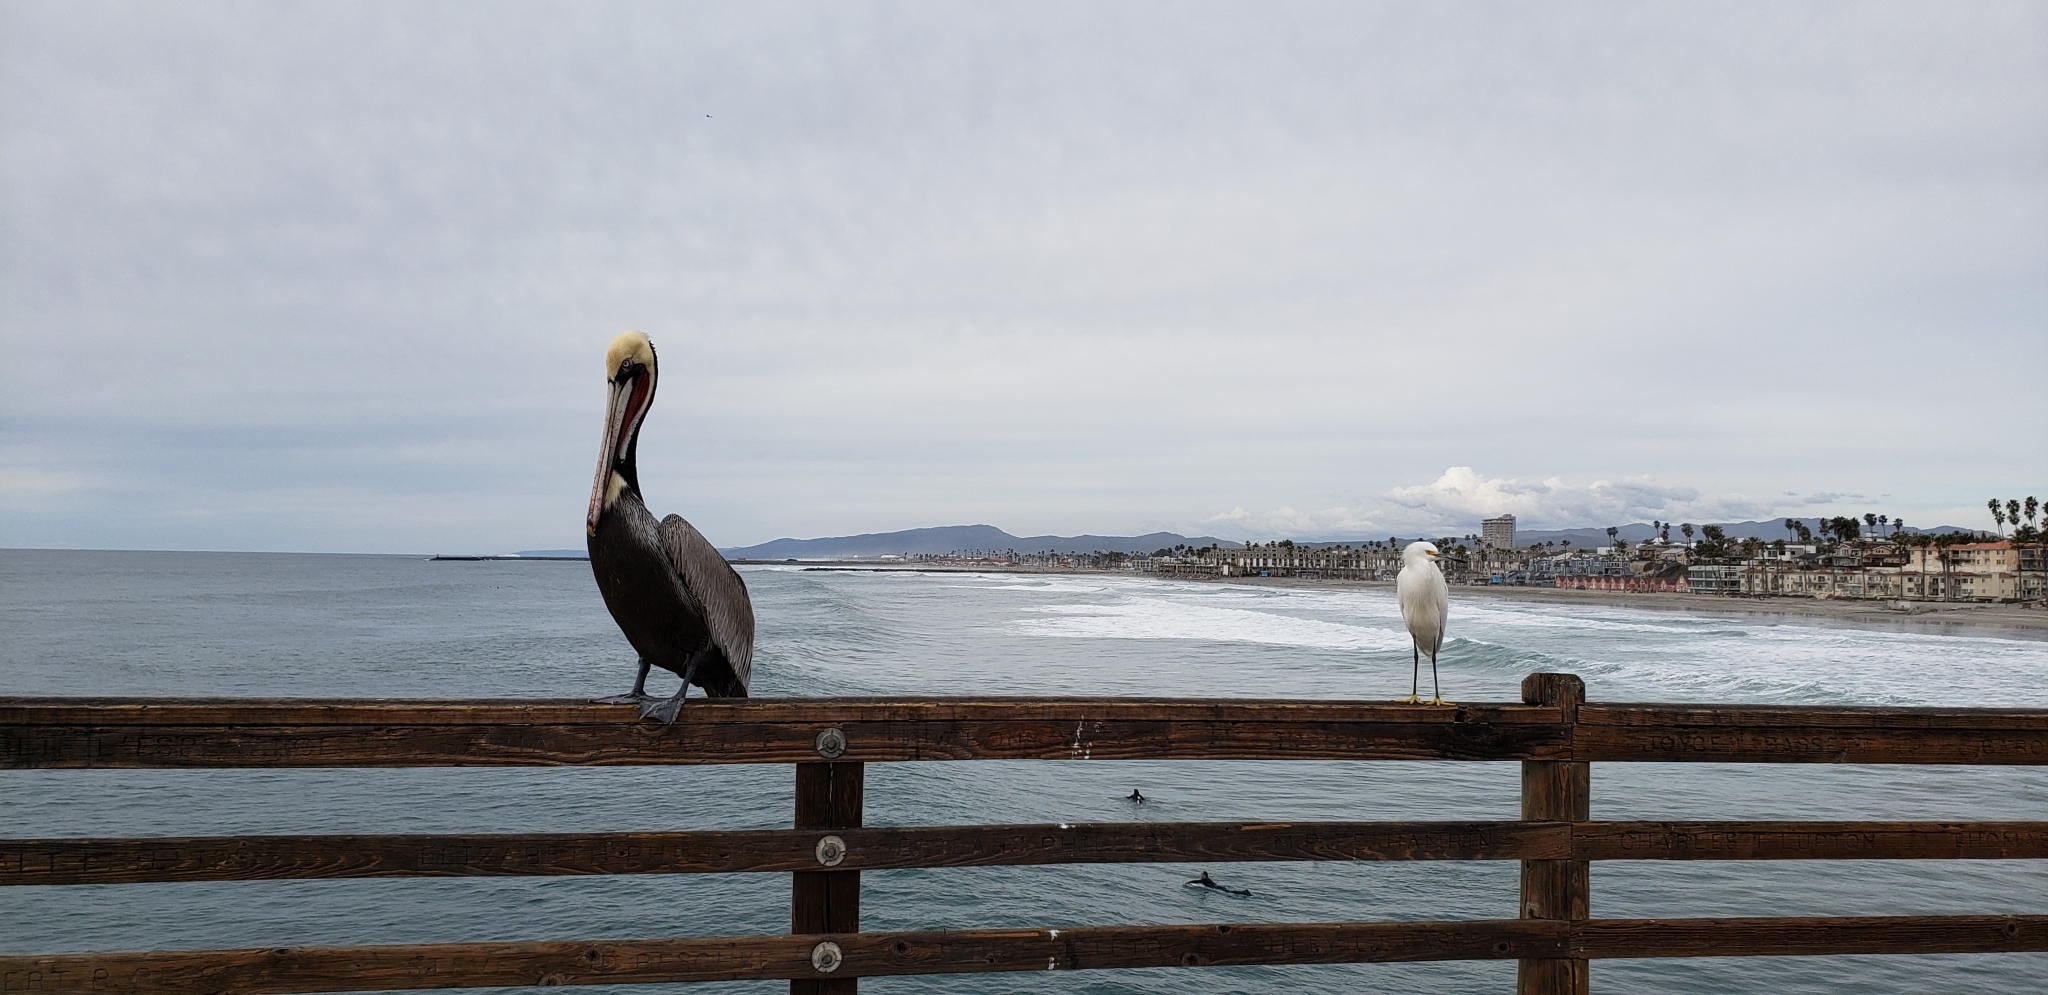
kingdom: Animalia
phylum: Chordata
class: Aves
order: Pelecaniformes
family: Ardeidae
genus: Egretta
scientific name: Egretta thula
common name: Snowy egret
